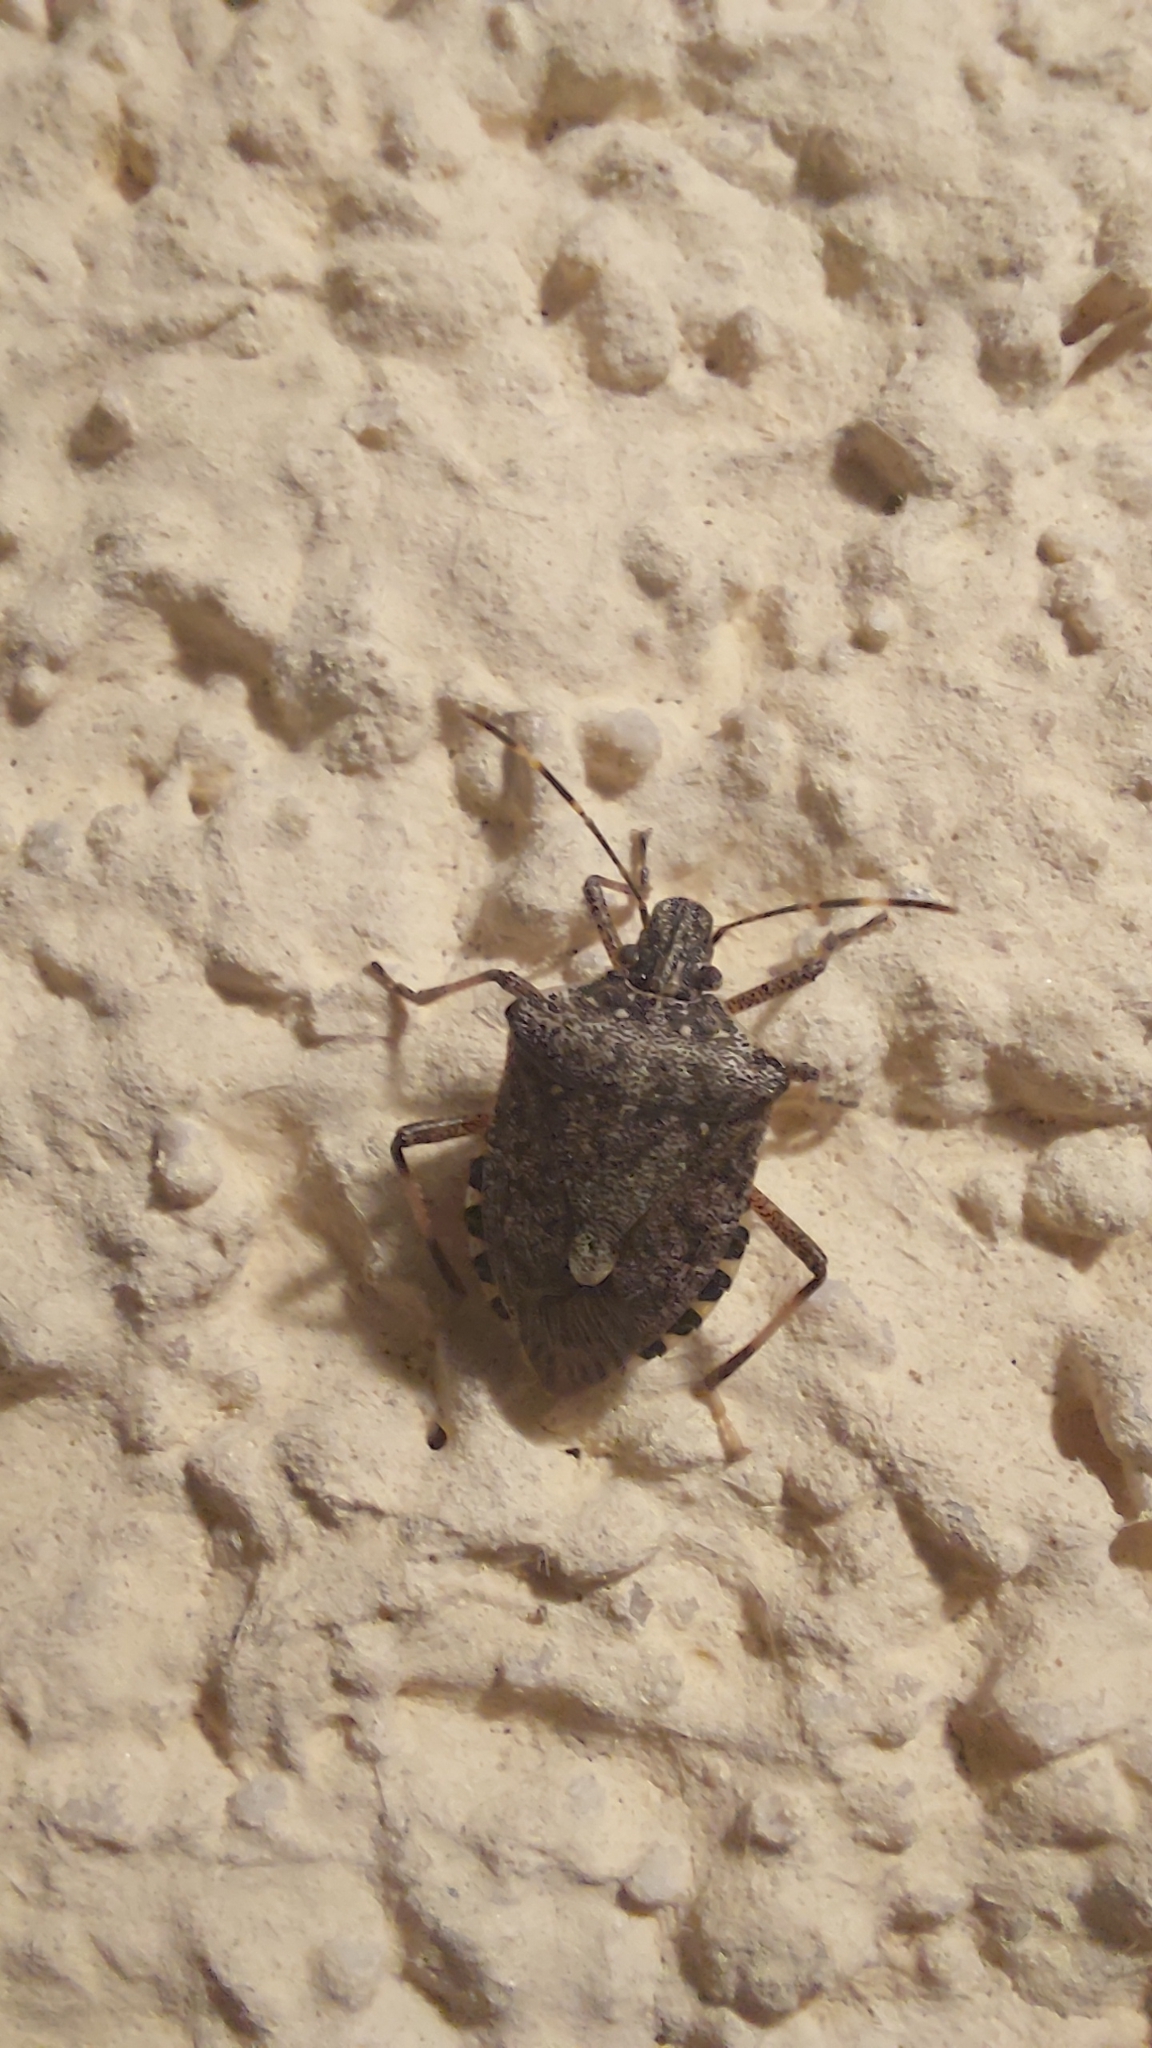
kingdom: Animalia
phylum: Arthropoda
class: Insecta
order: Hemiptera
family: Pentatomidae
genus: Halyomorpha
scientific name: Halyomorpha halys
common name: Brown marmorated stink bug
